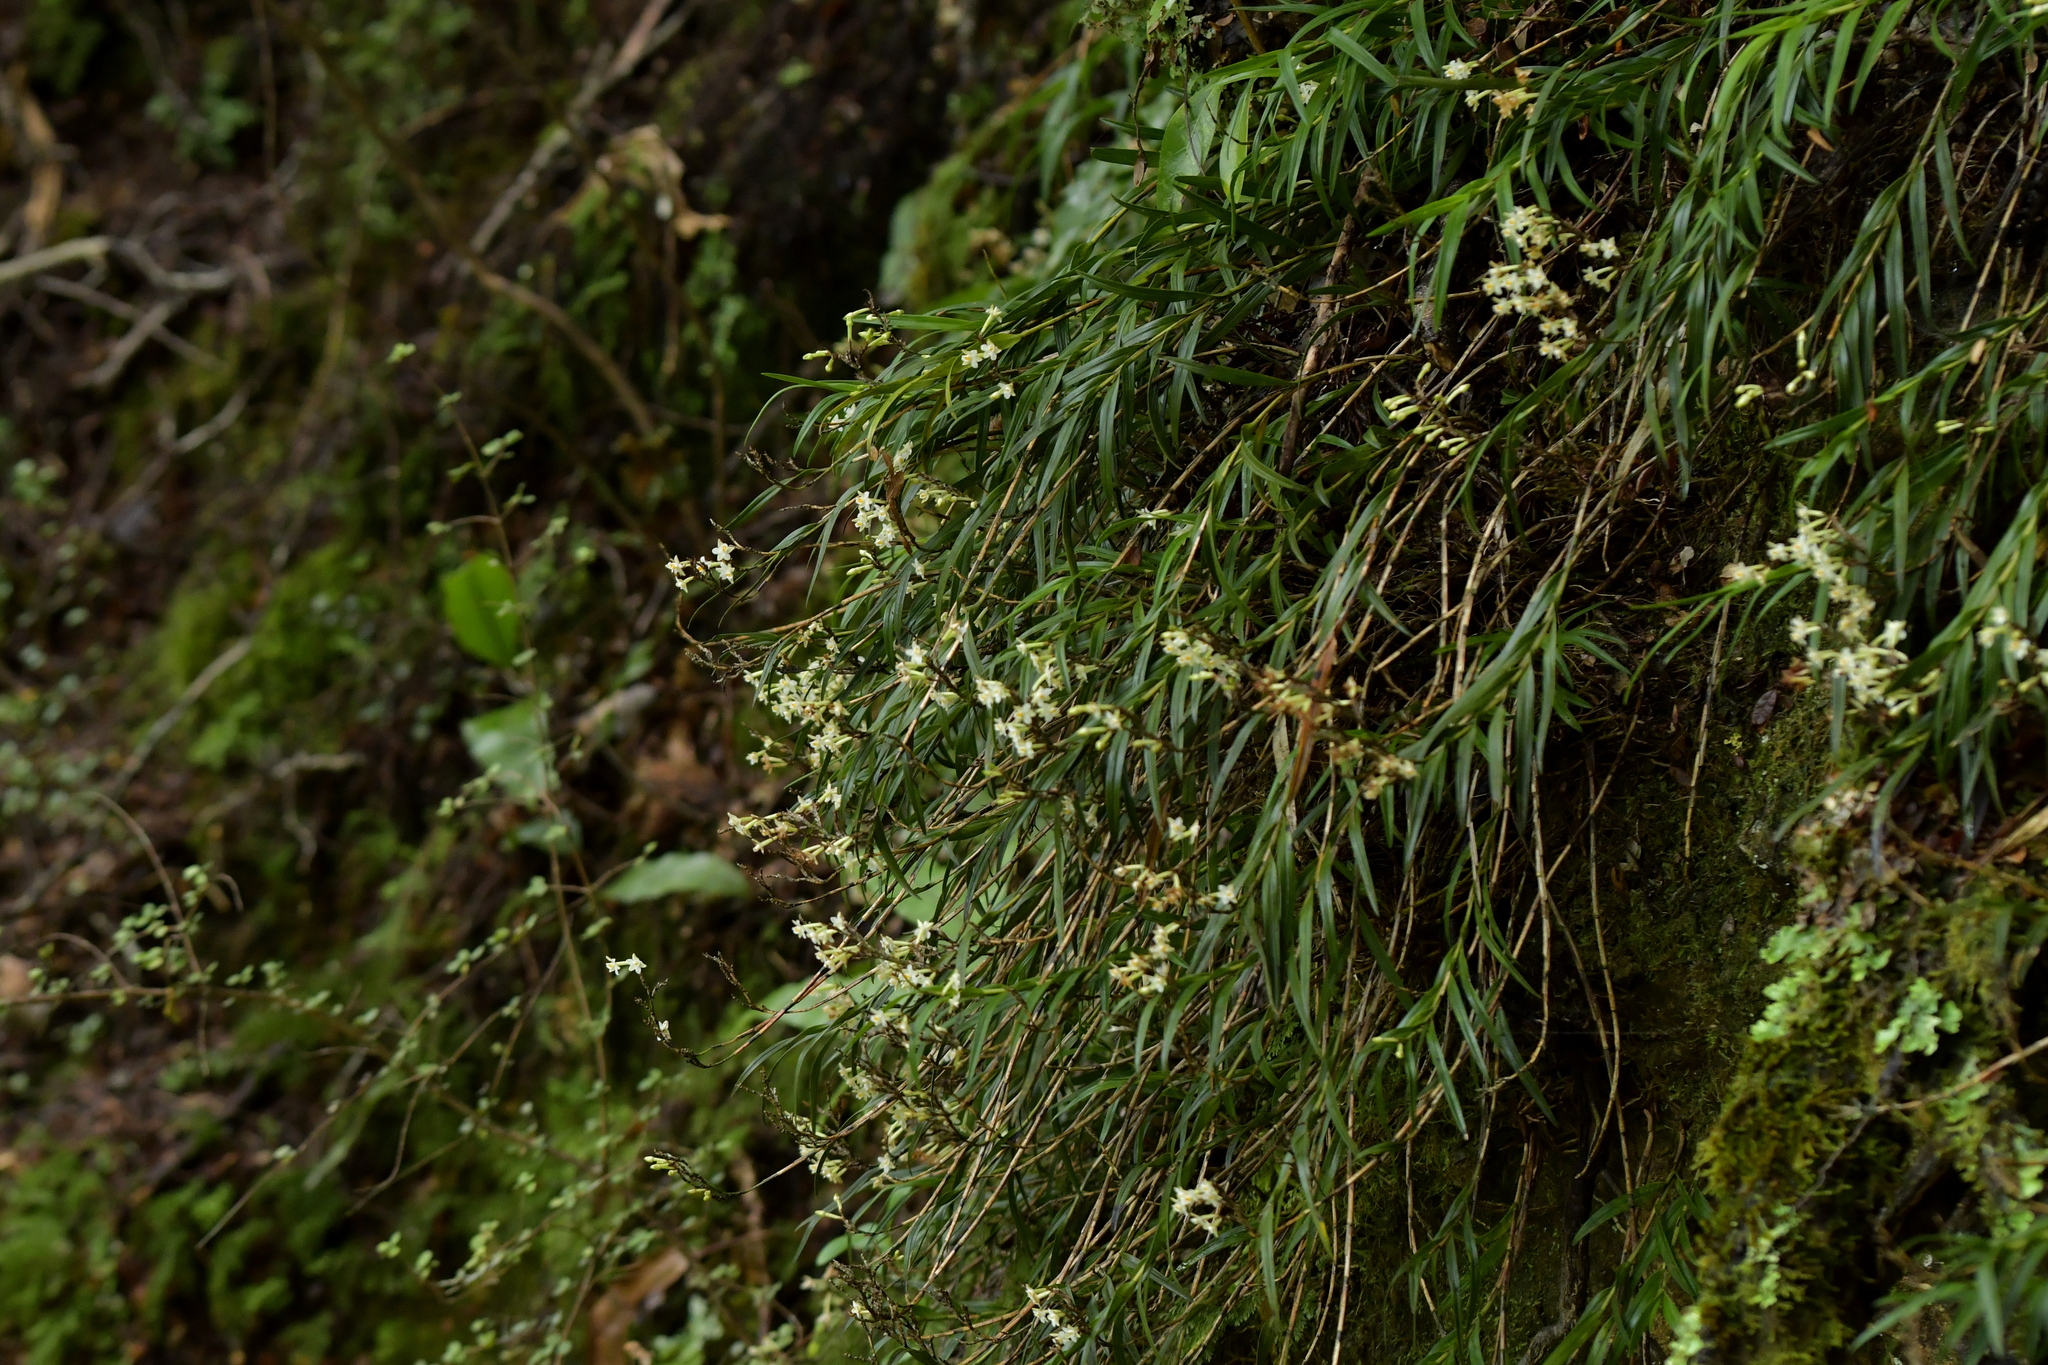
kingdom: Plantae
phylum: Tracheophyta
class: Liliopsida
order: Asparagales
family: Orchidaceae
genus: Earina
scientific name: Earina autumnalis
